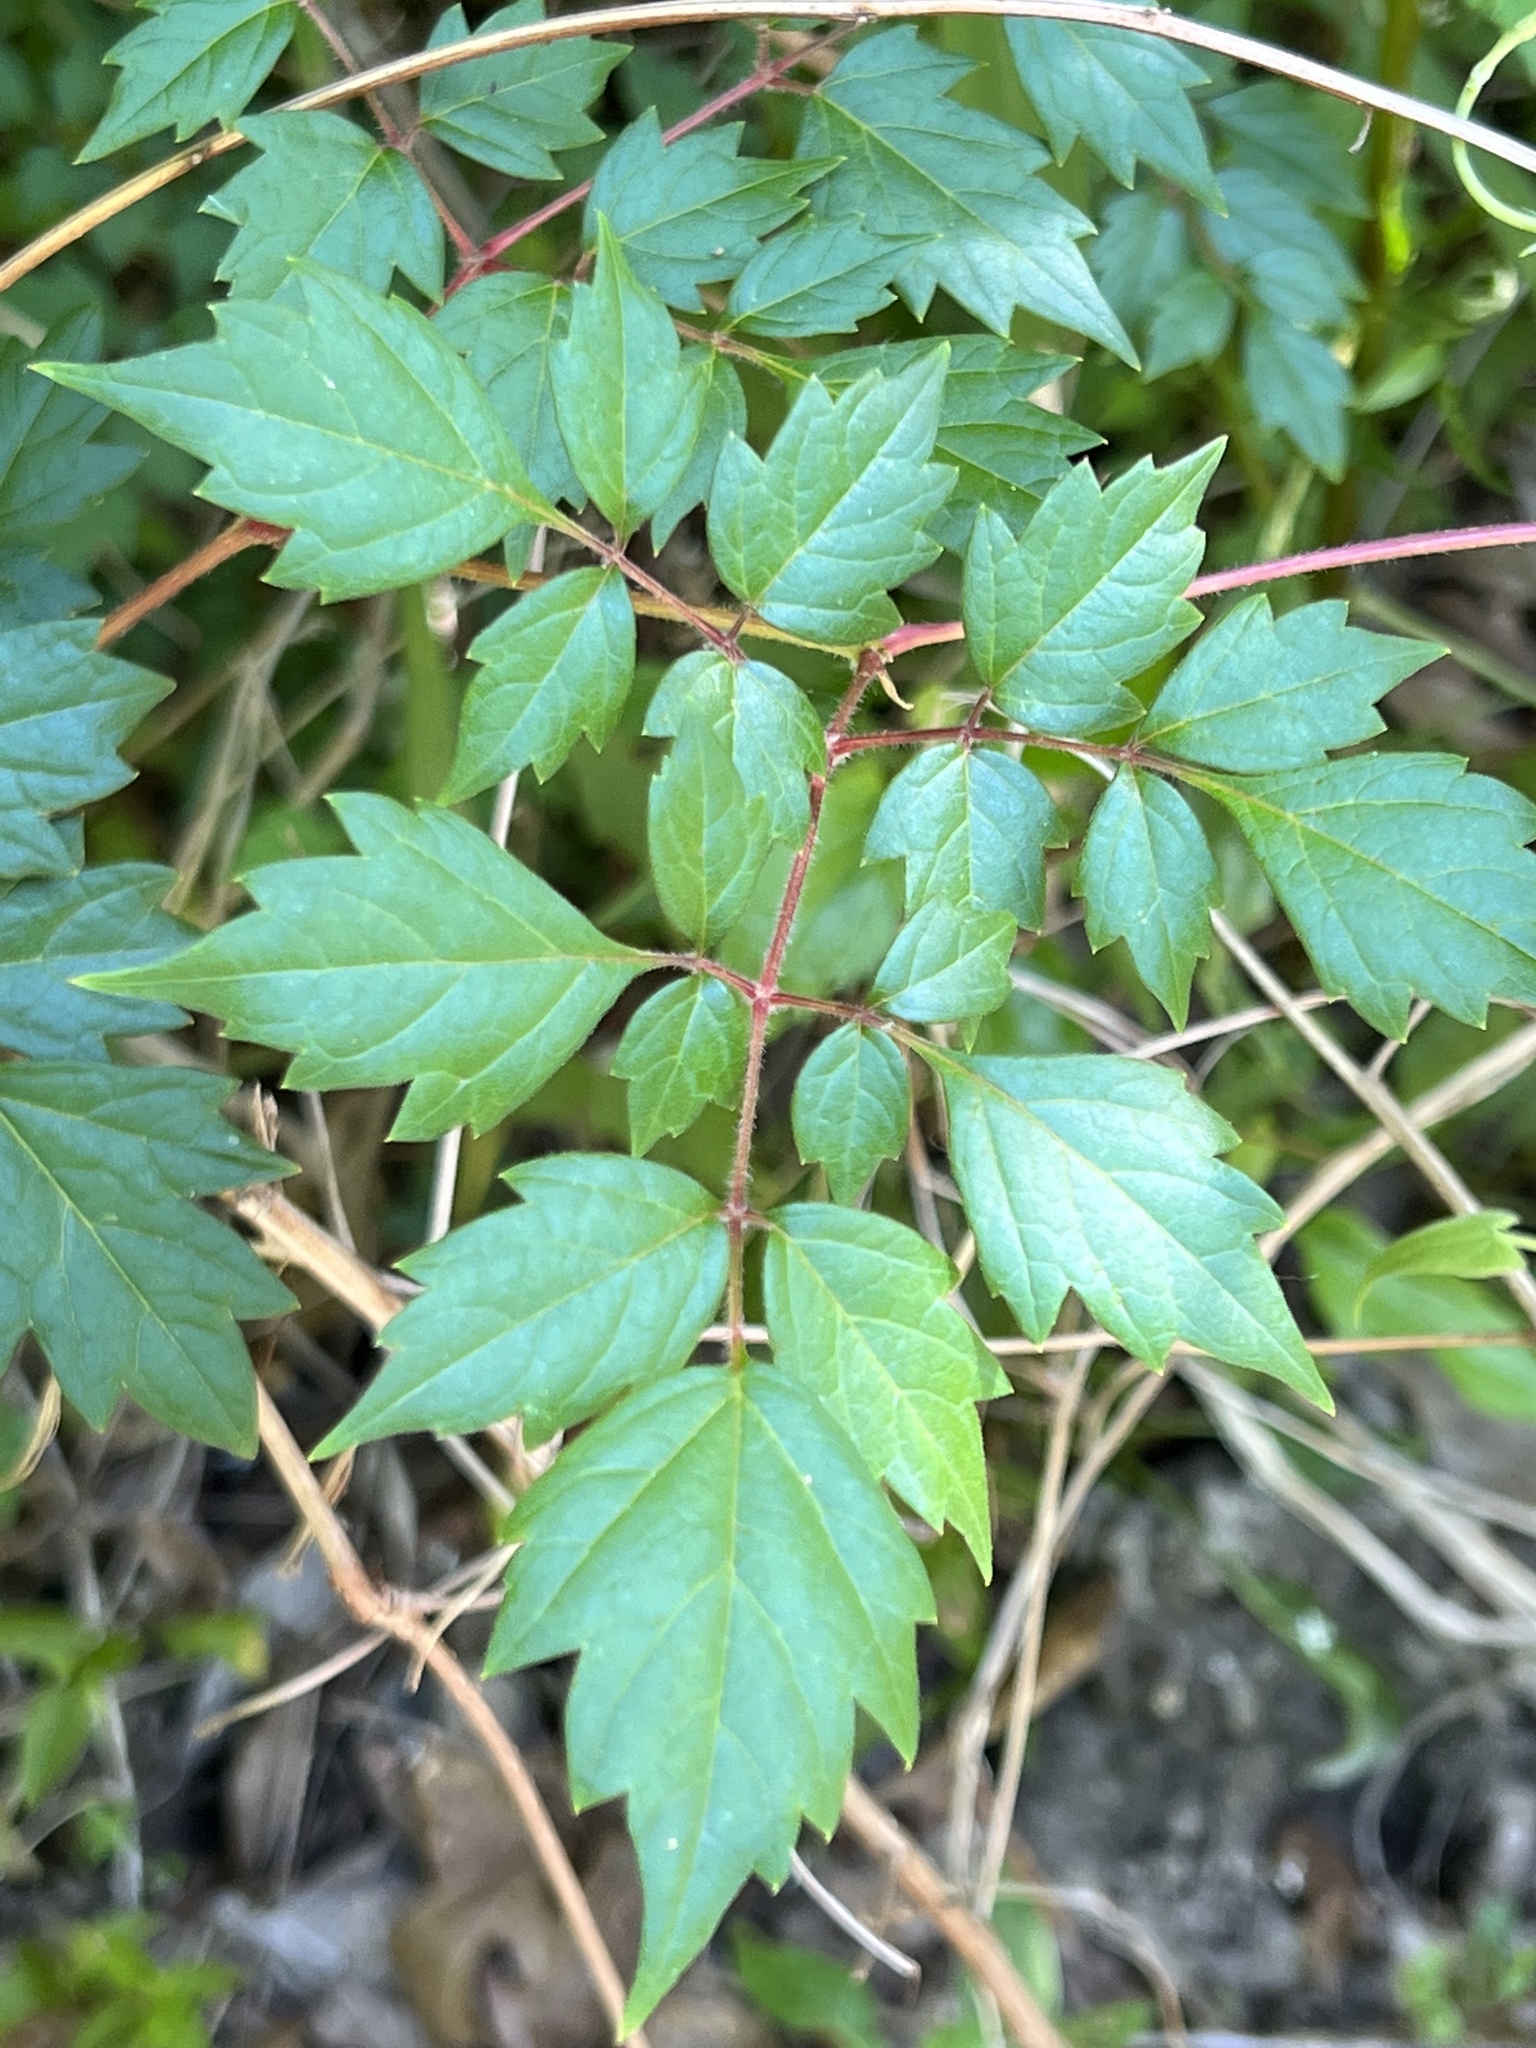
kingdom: Plantae
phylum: Tracheophyta
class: Magnoliopsida
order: Vitales
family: Vitaceae
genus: Nekemias
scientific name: Nekemias arborea
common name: Peppervine
